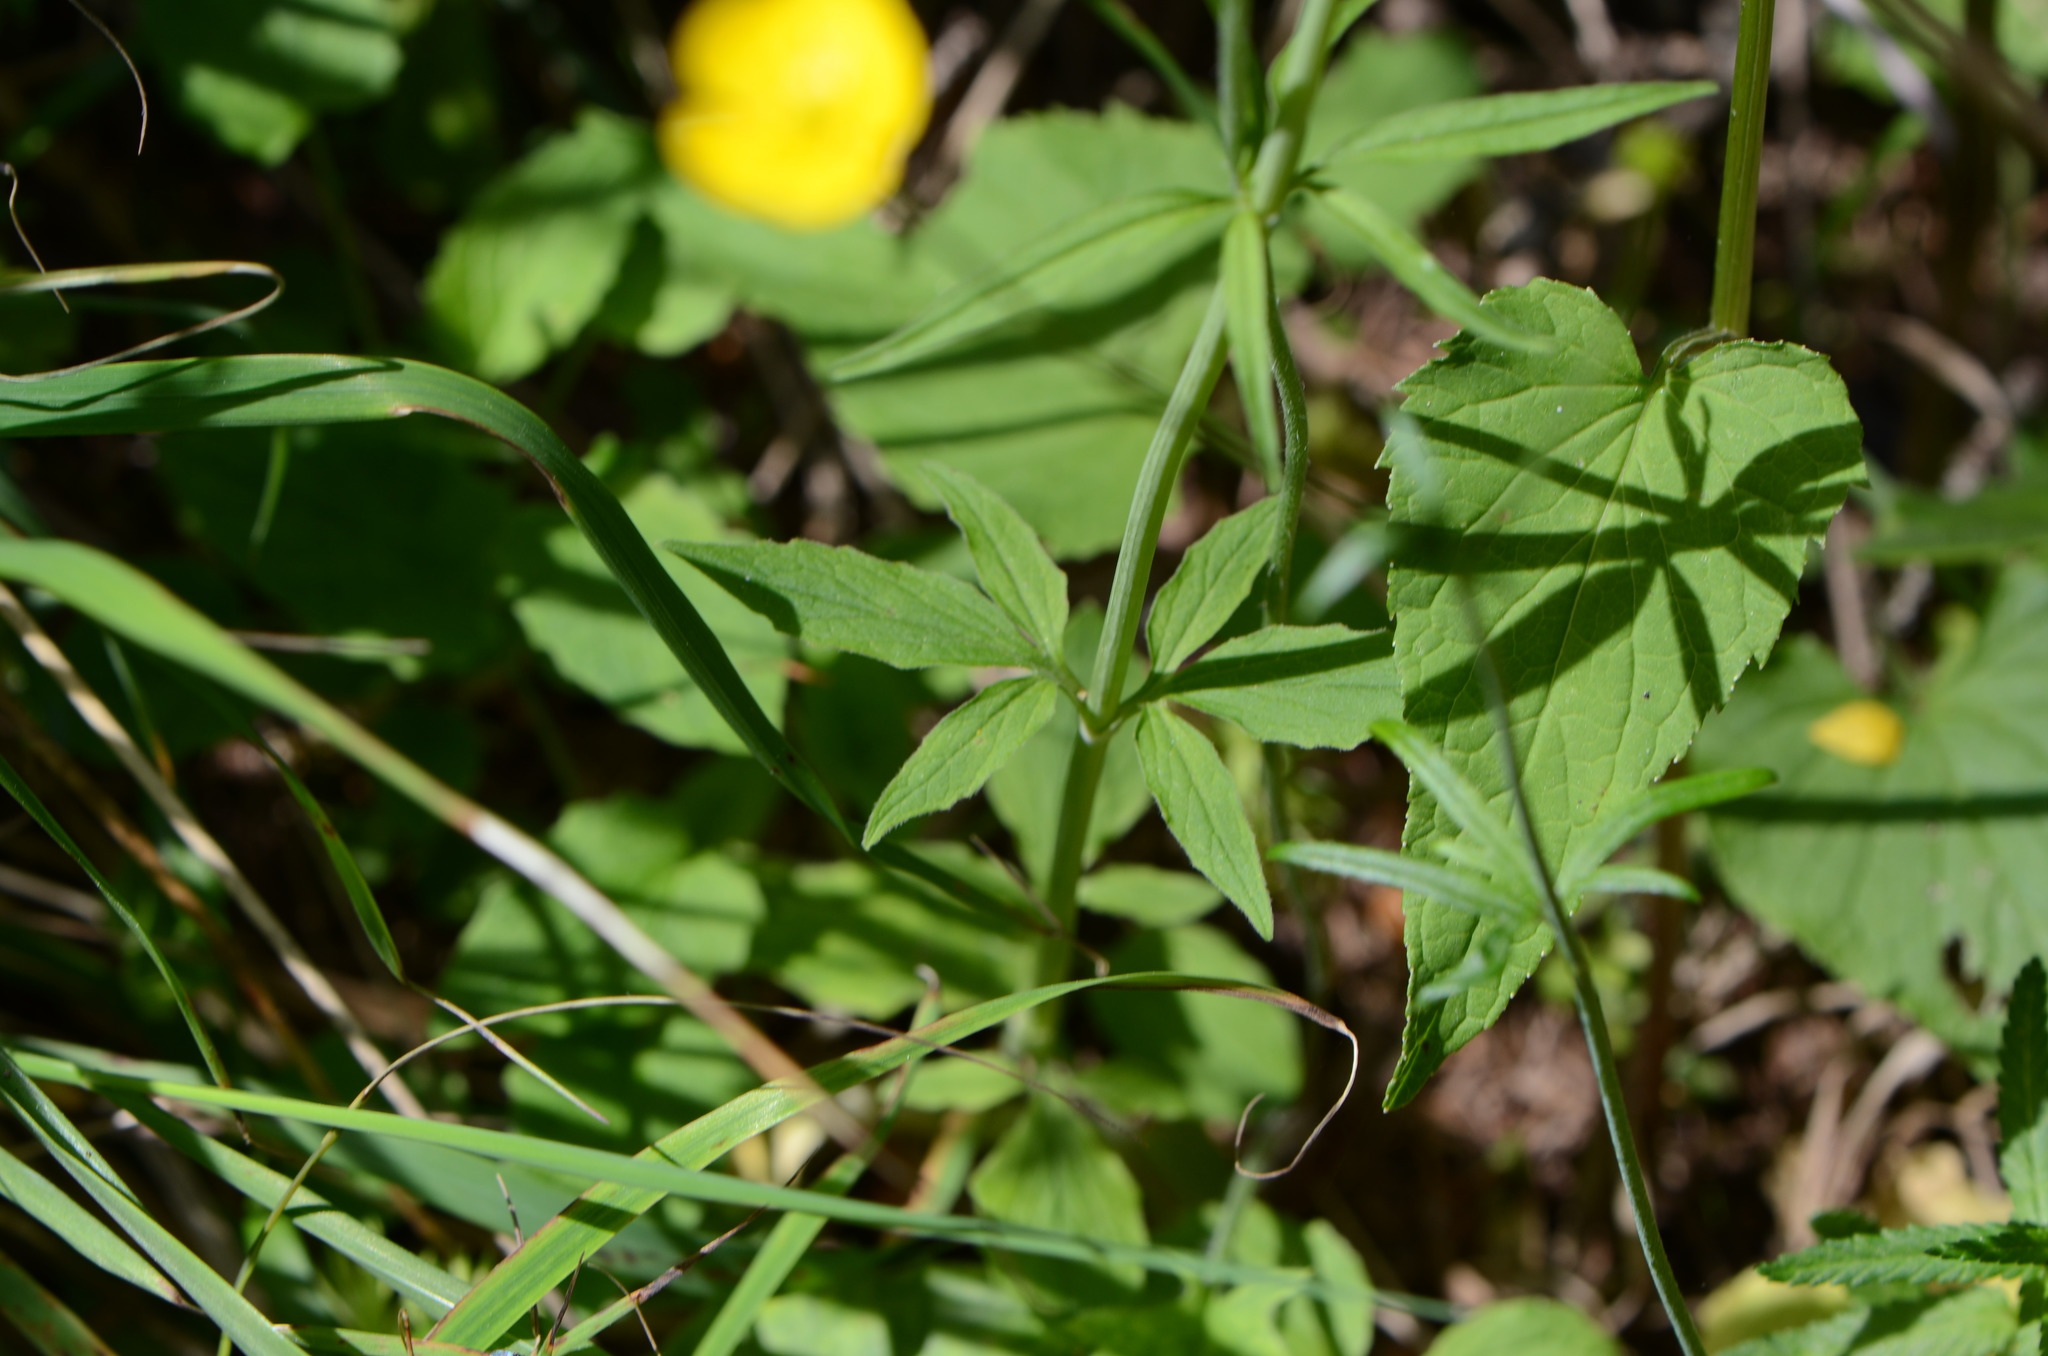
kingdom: Plantae
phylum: Tracheophyta
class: Magnoliopsida
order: Dipsacales
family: Caprifoliaceae
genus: Valeriana
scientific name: Valeriana tripteris
